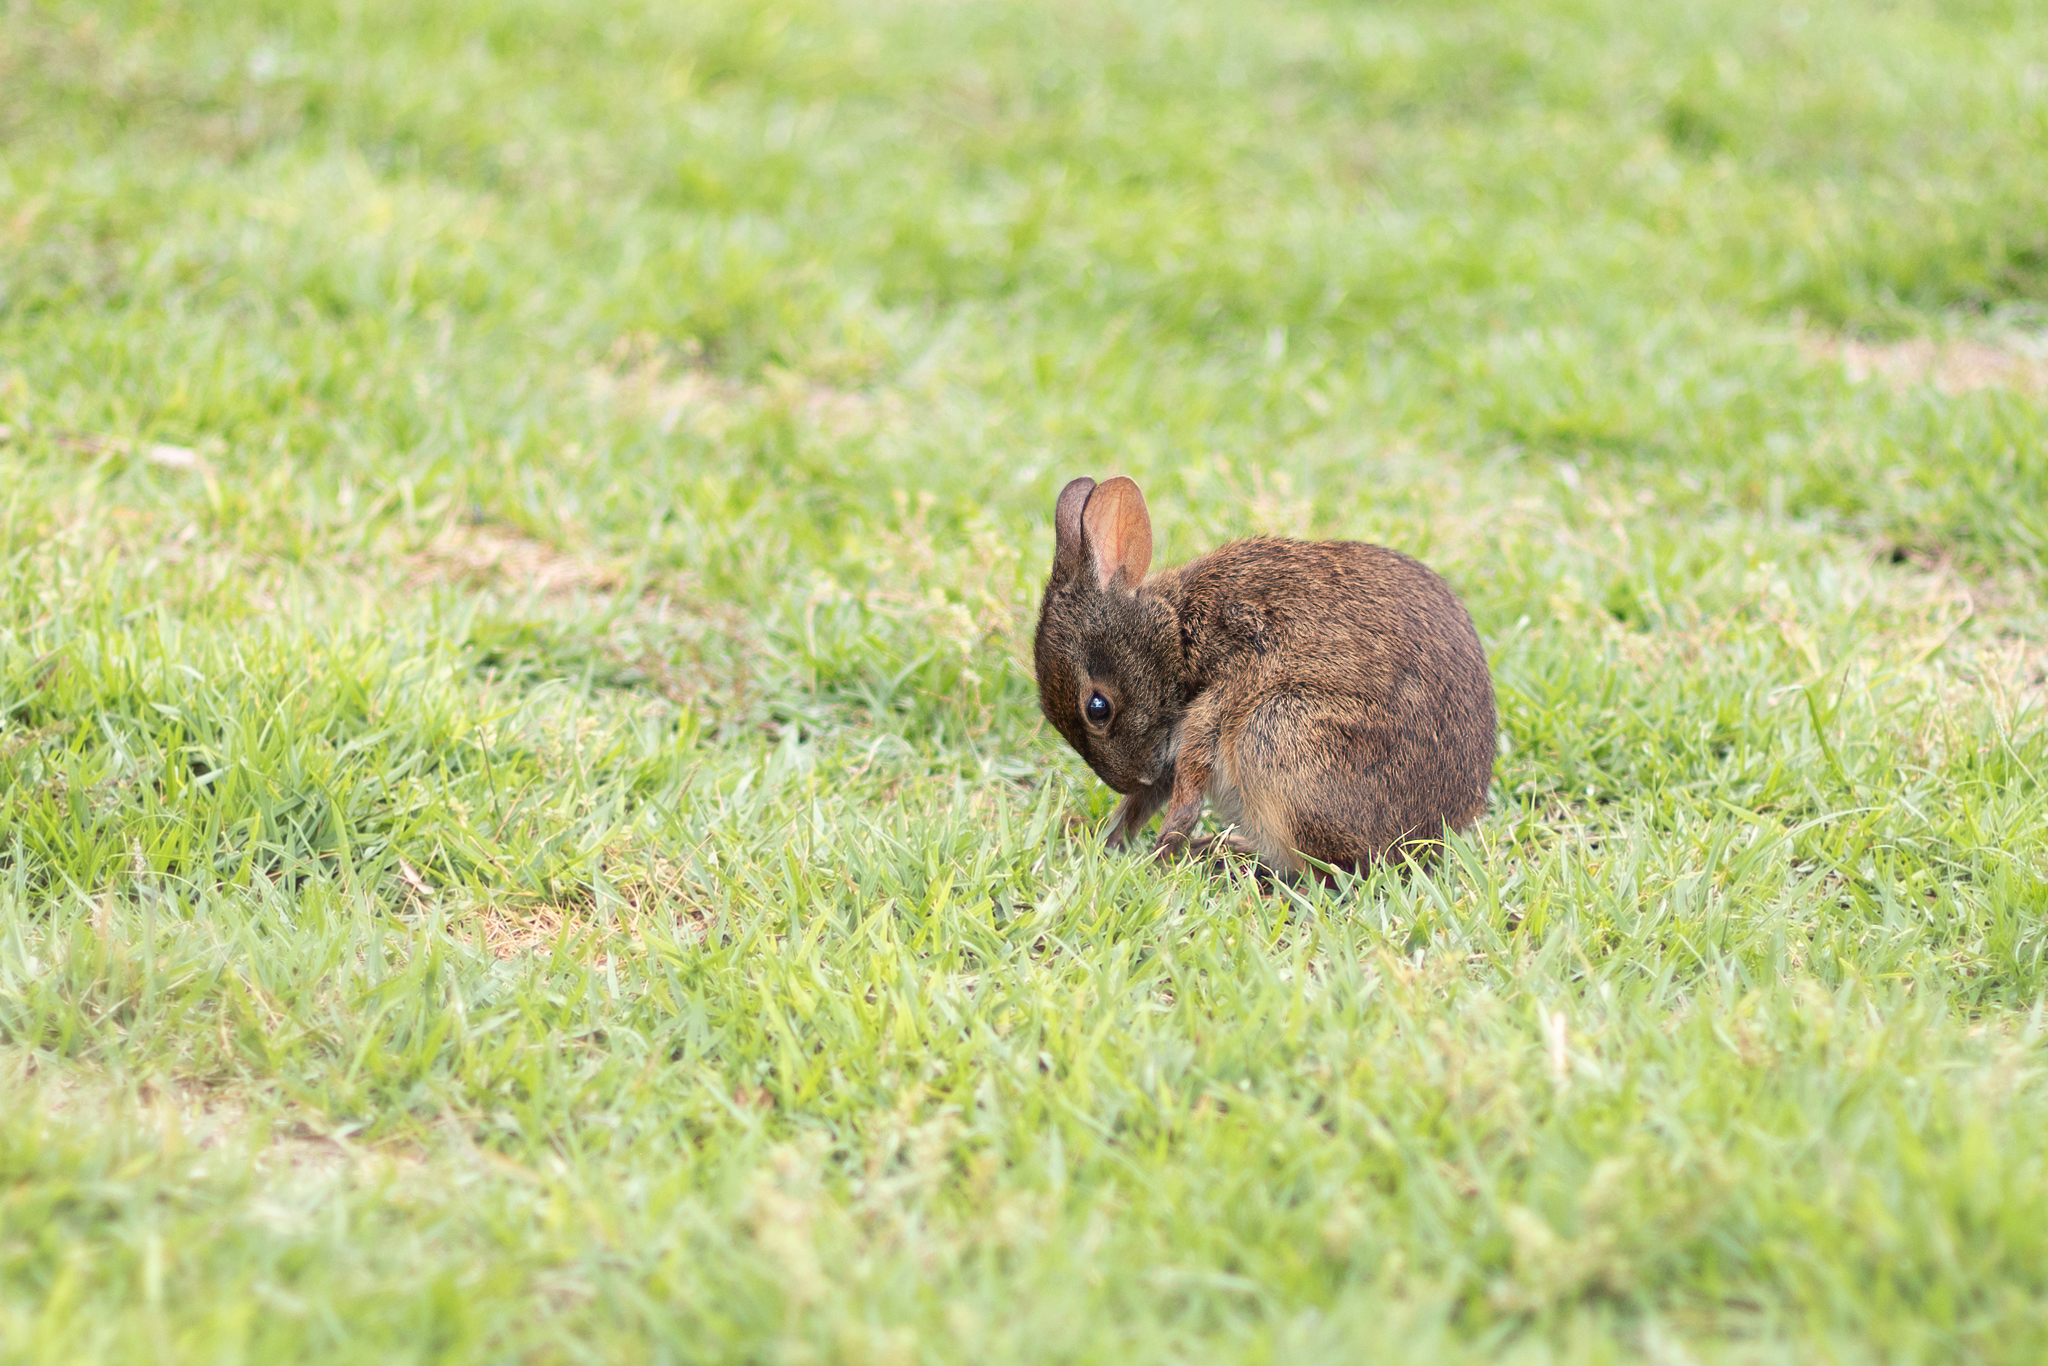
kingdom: Animalia
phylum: Chordata
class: Mammalia
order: Lagomorpha
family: Leporidae
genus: Sylvilagus
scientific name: Sylvilagus palustris
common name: Marsh rabbit
